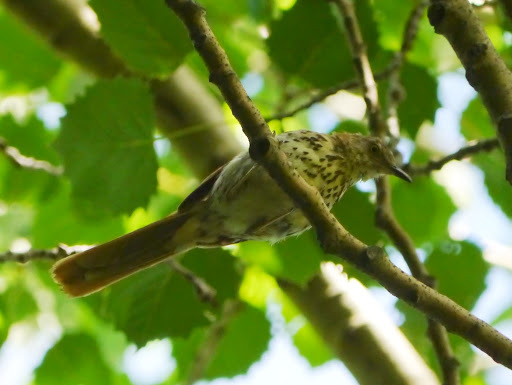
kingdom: Animalia
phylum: Chordata
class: Aves
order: Passeriformes
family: Mimidae
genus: Toxostoma
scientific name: Toxostoma rufum
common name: Brown thrasher
